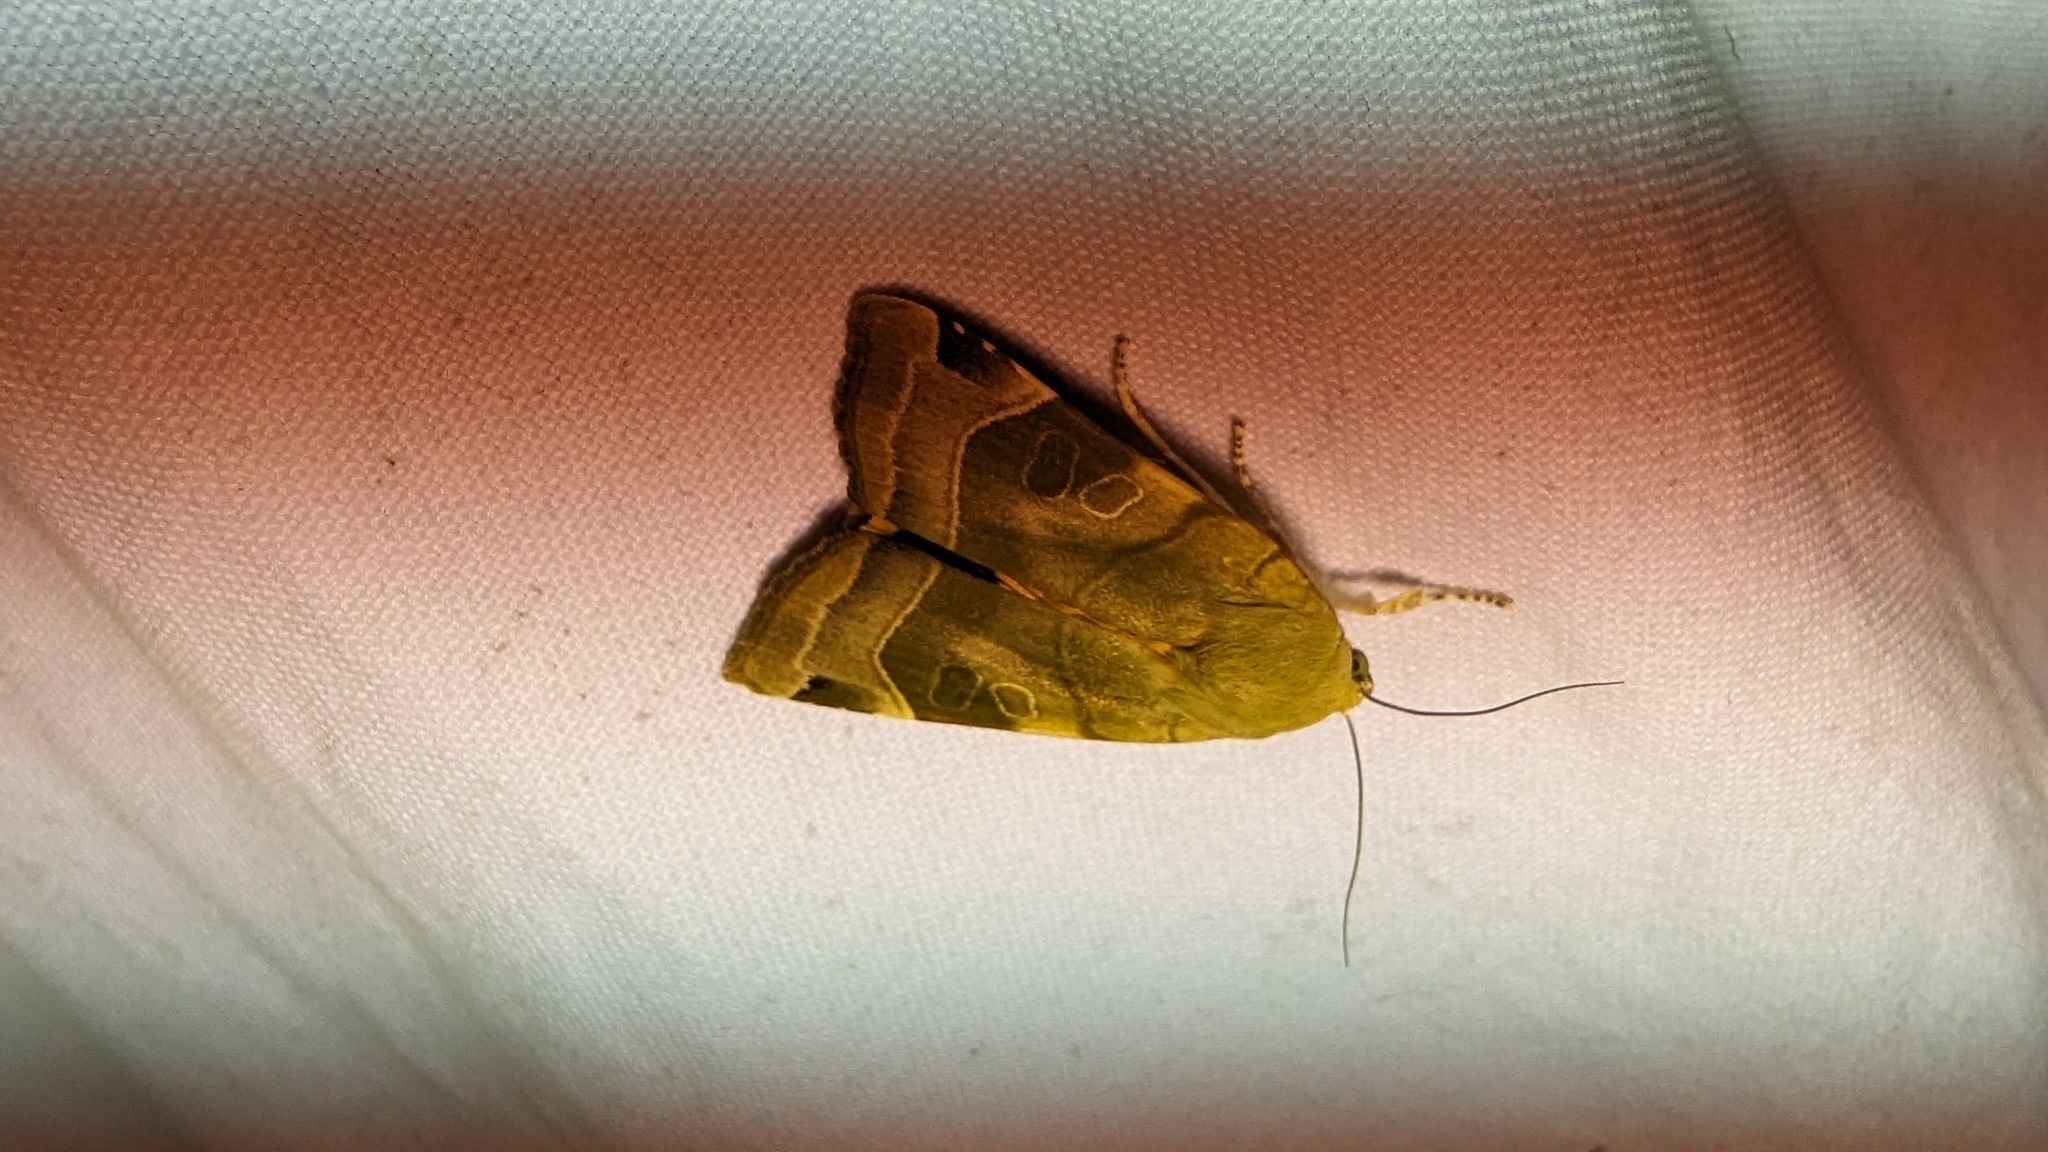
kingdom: Animalia
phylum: Arthropoda
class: Insecta
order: Lepidoptera
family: Noctuidae
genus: Noctua
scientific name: Noctua fimbriata
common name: Broad-bordered yellow underwing
